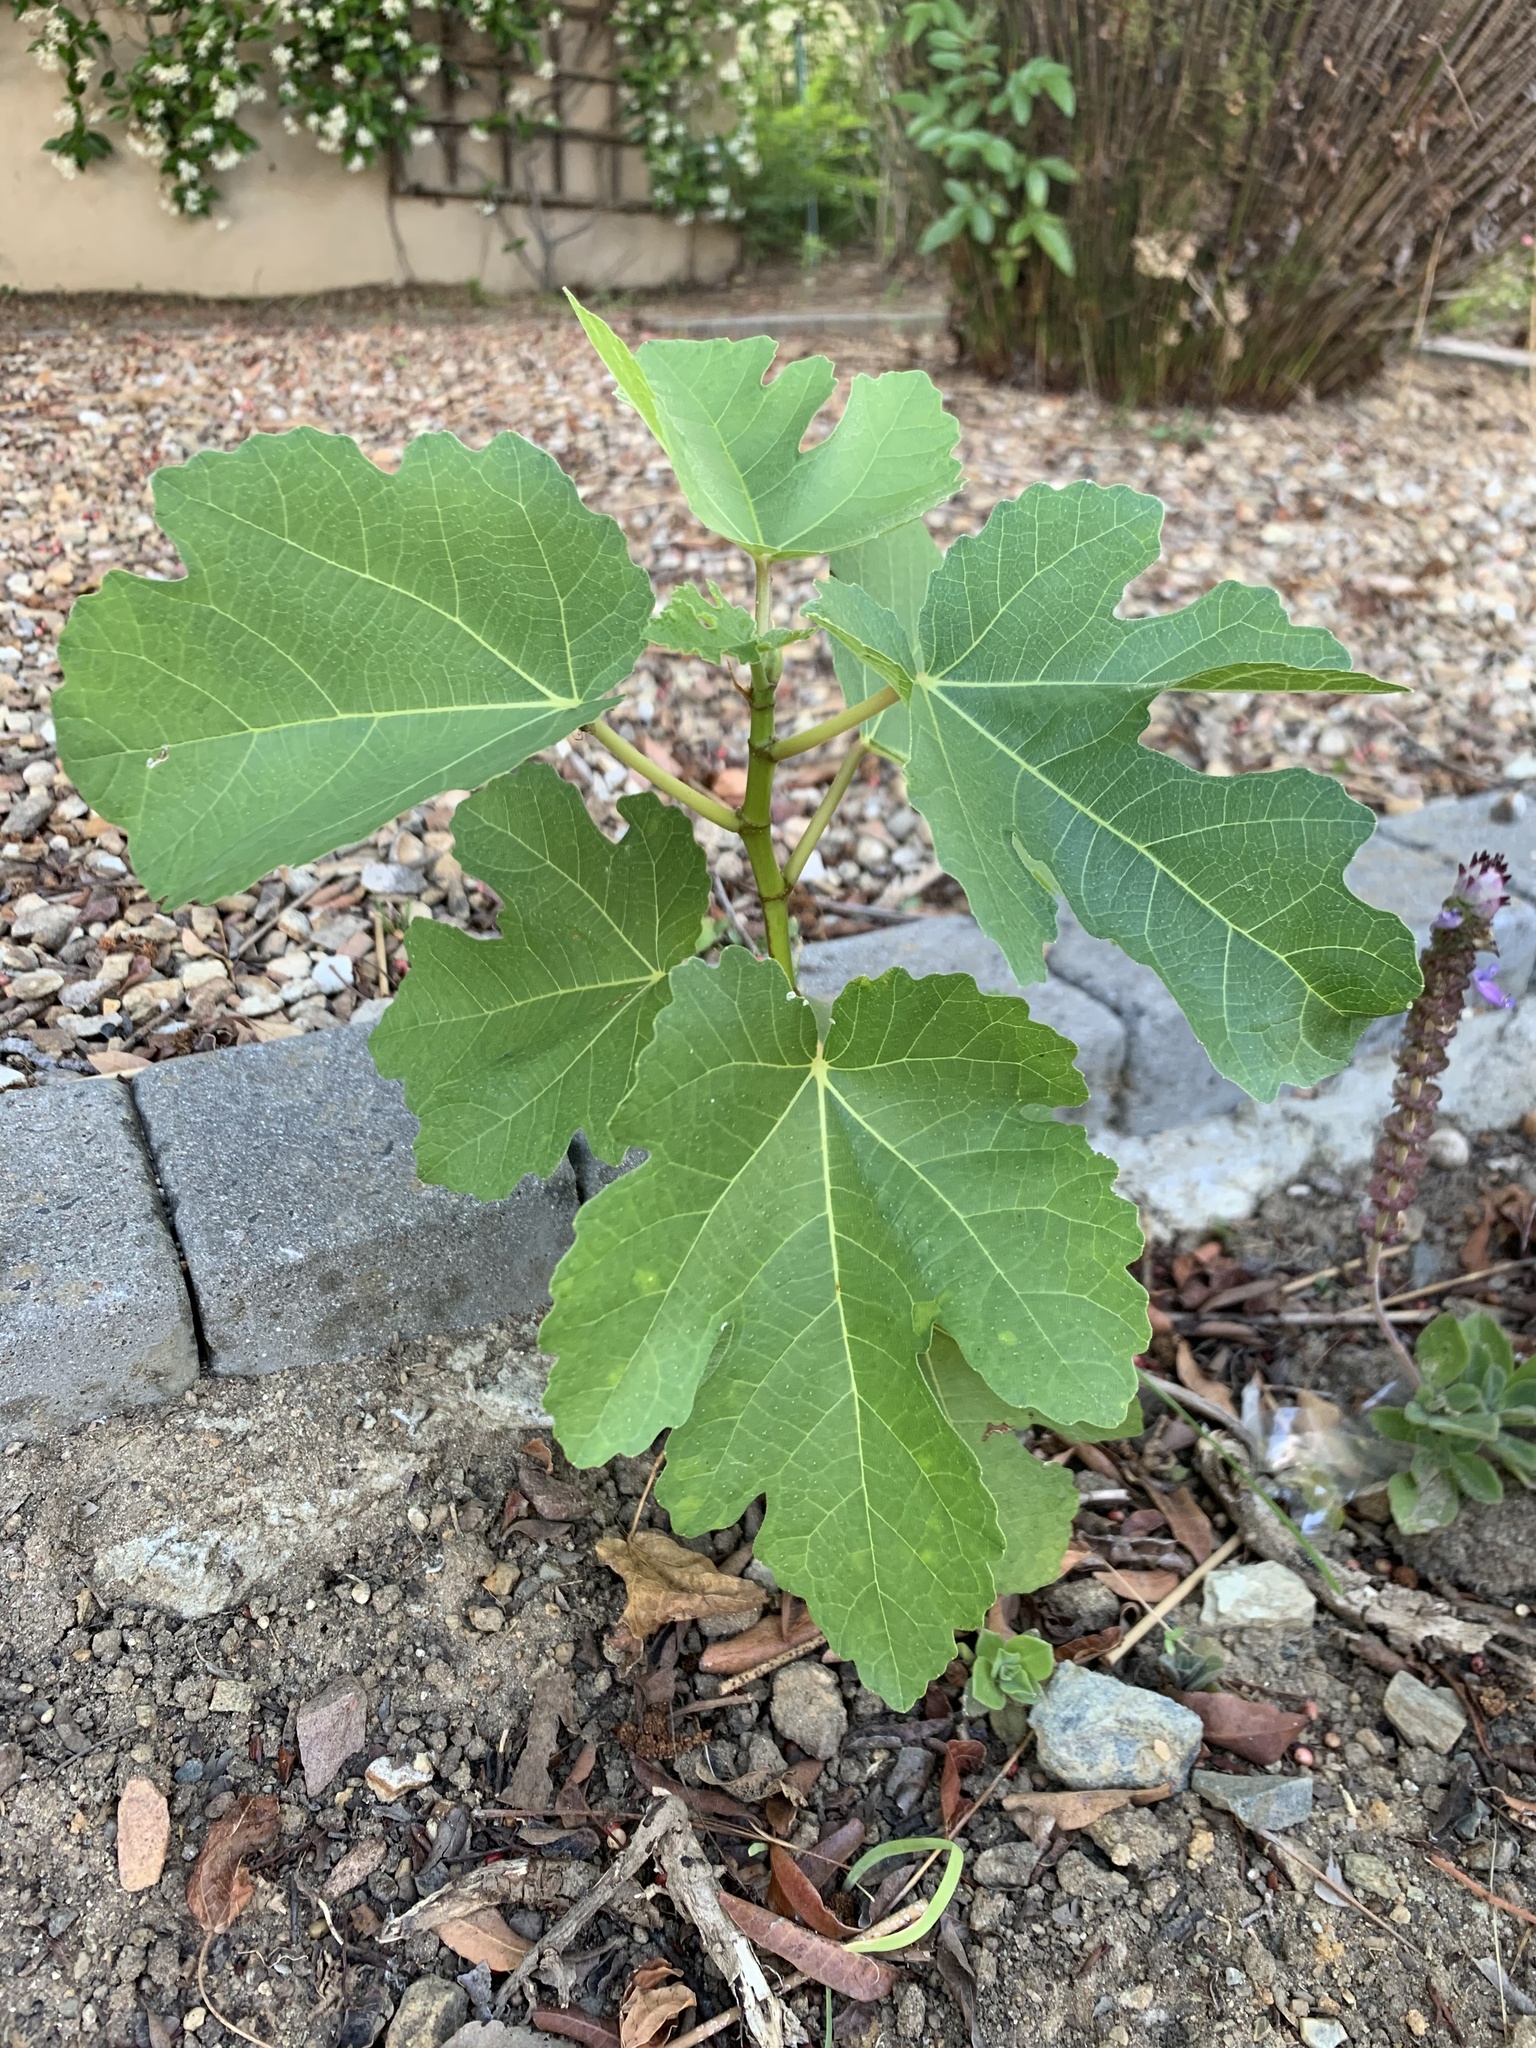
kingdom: Plantae
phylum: Tracheophyta
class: Magnoliopsida
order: Rosales
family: Moraceae
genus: Ficus
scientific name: Ficus carica
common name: Fig
